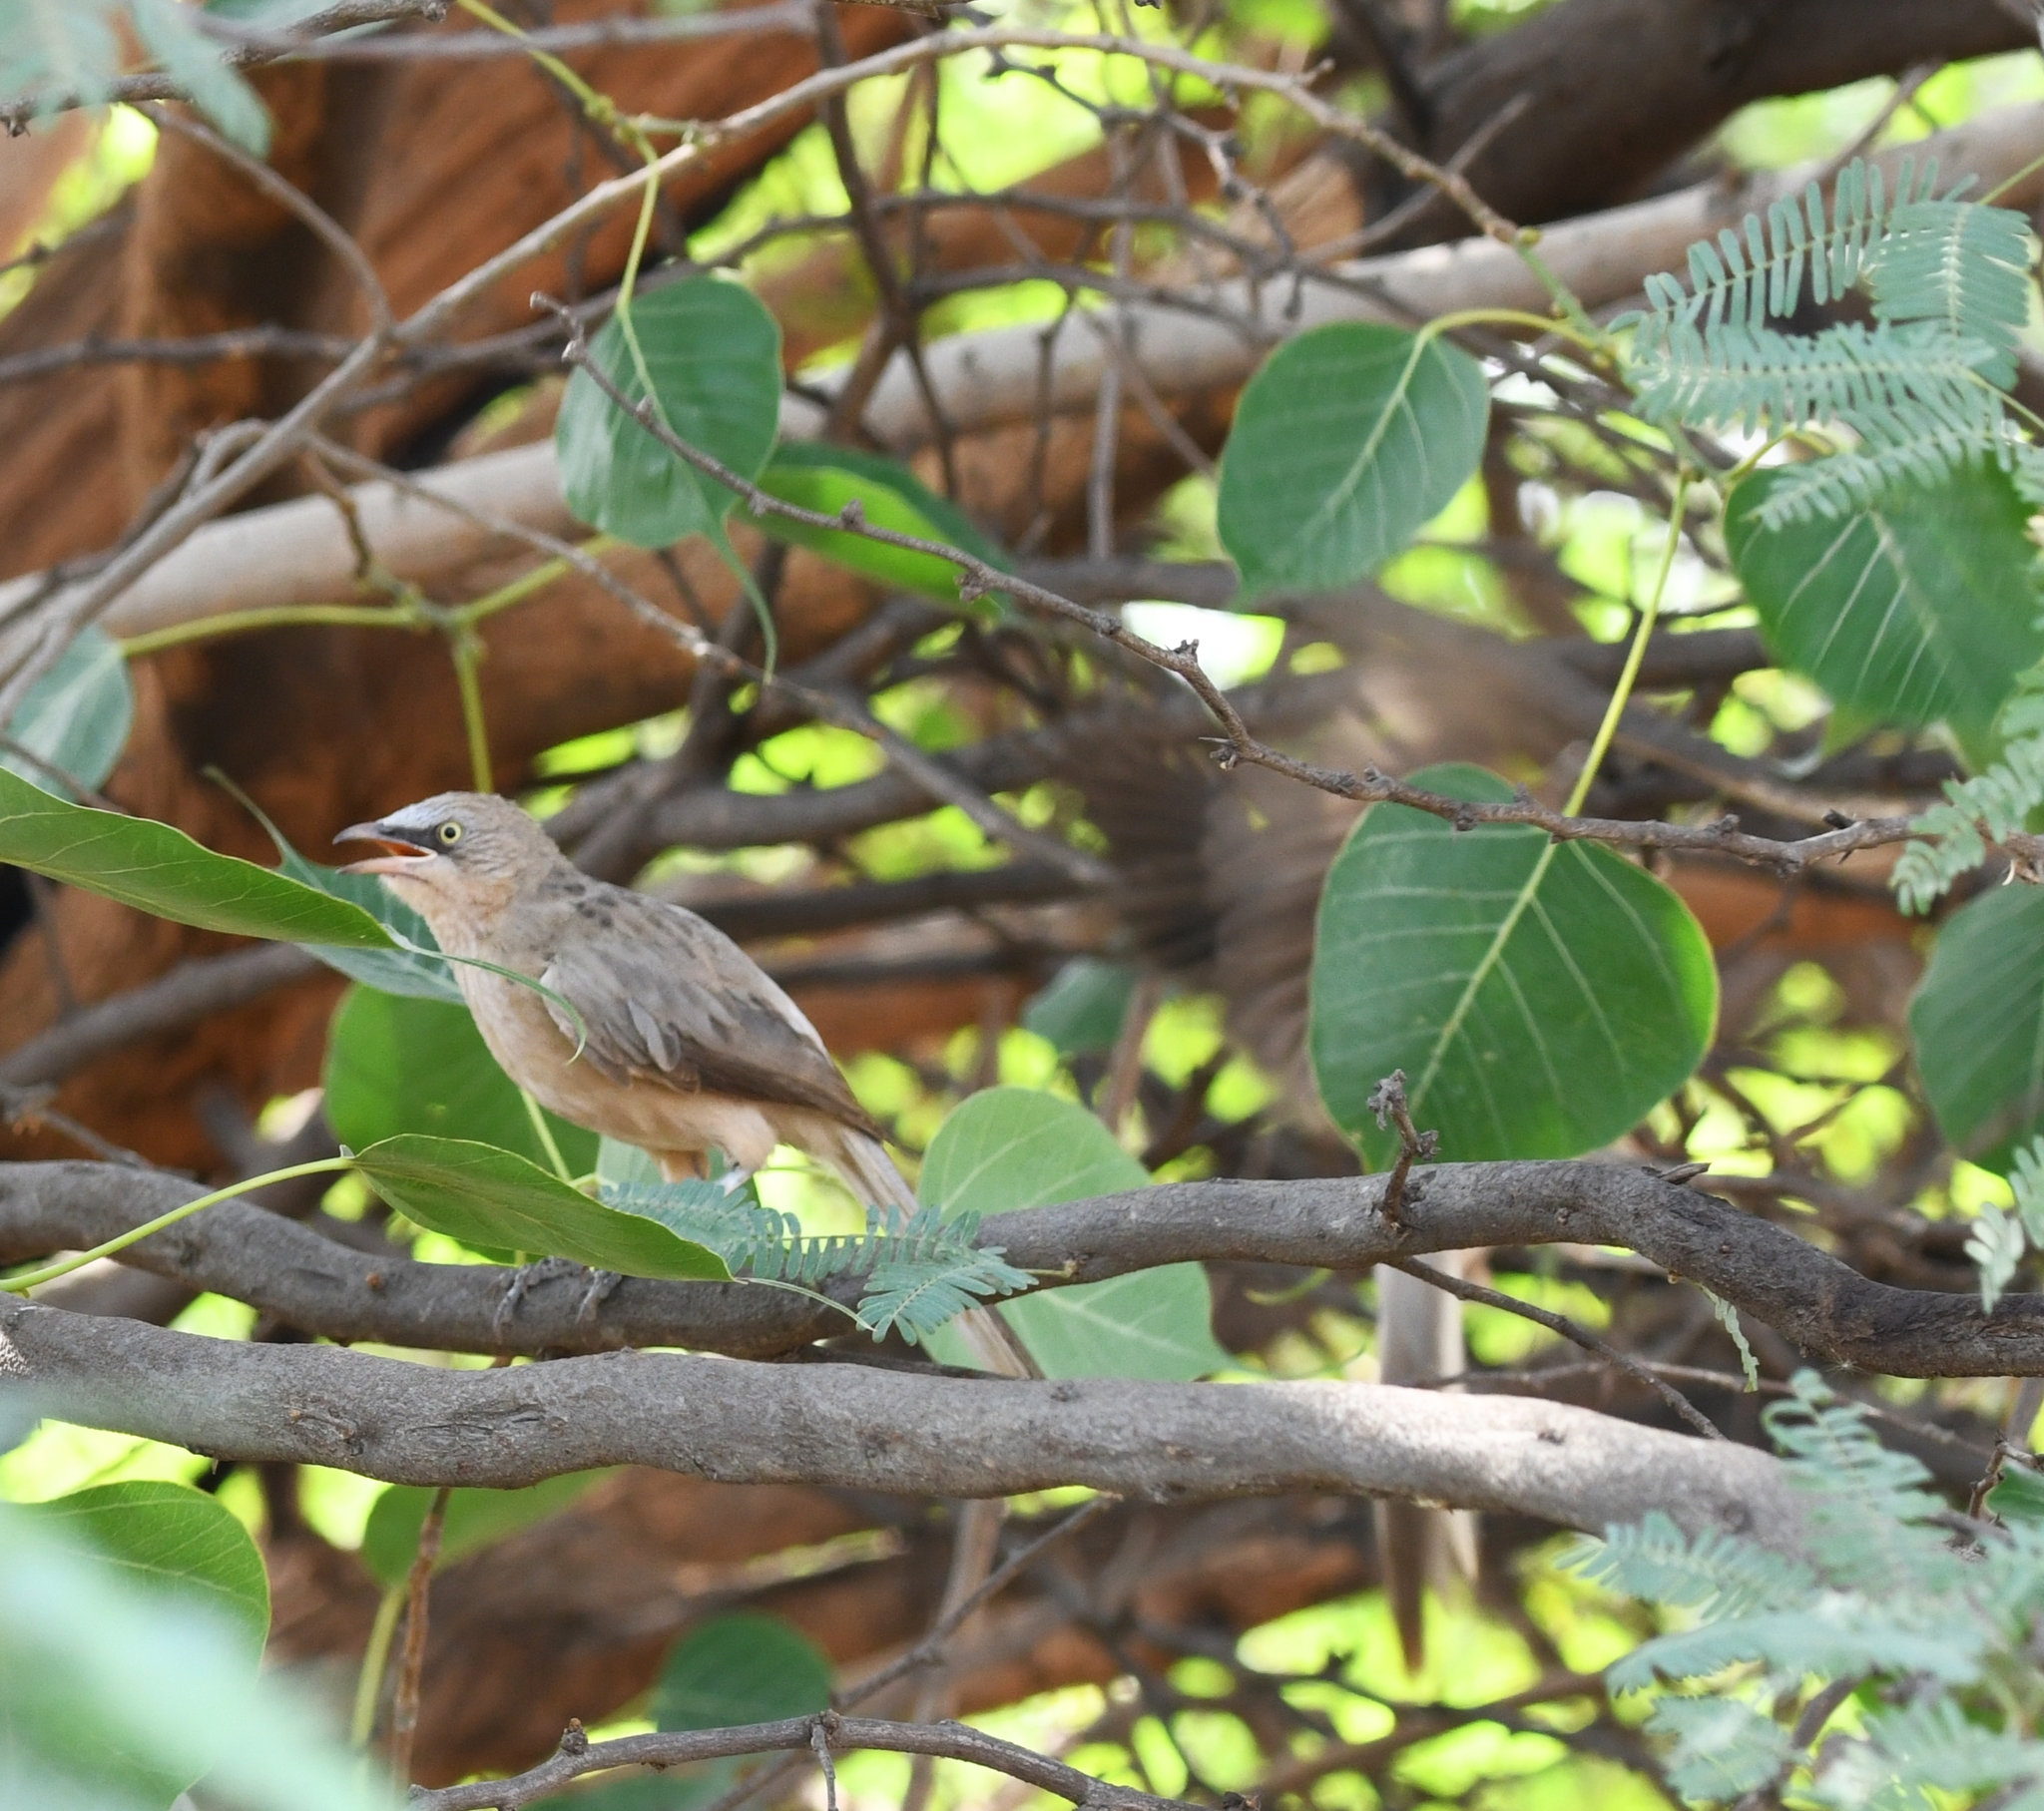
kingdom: Animalia
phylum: Chordata
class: Aves
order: Passeriformes
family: Leiothrichidae
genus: Turdoides
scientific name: Turdoides malcolmi
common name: Large grey babbler
